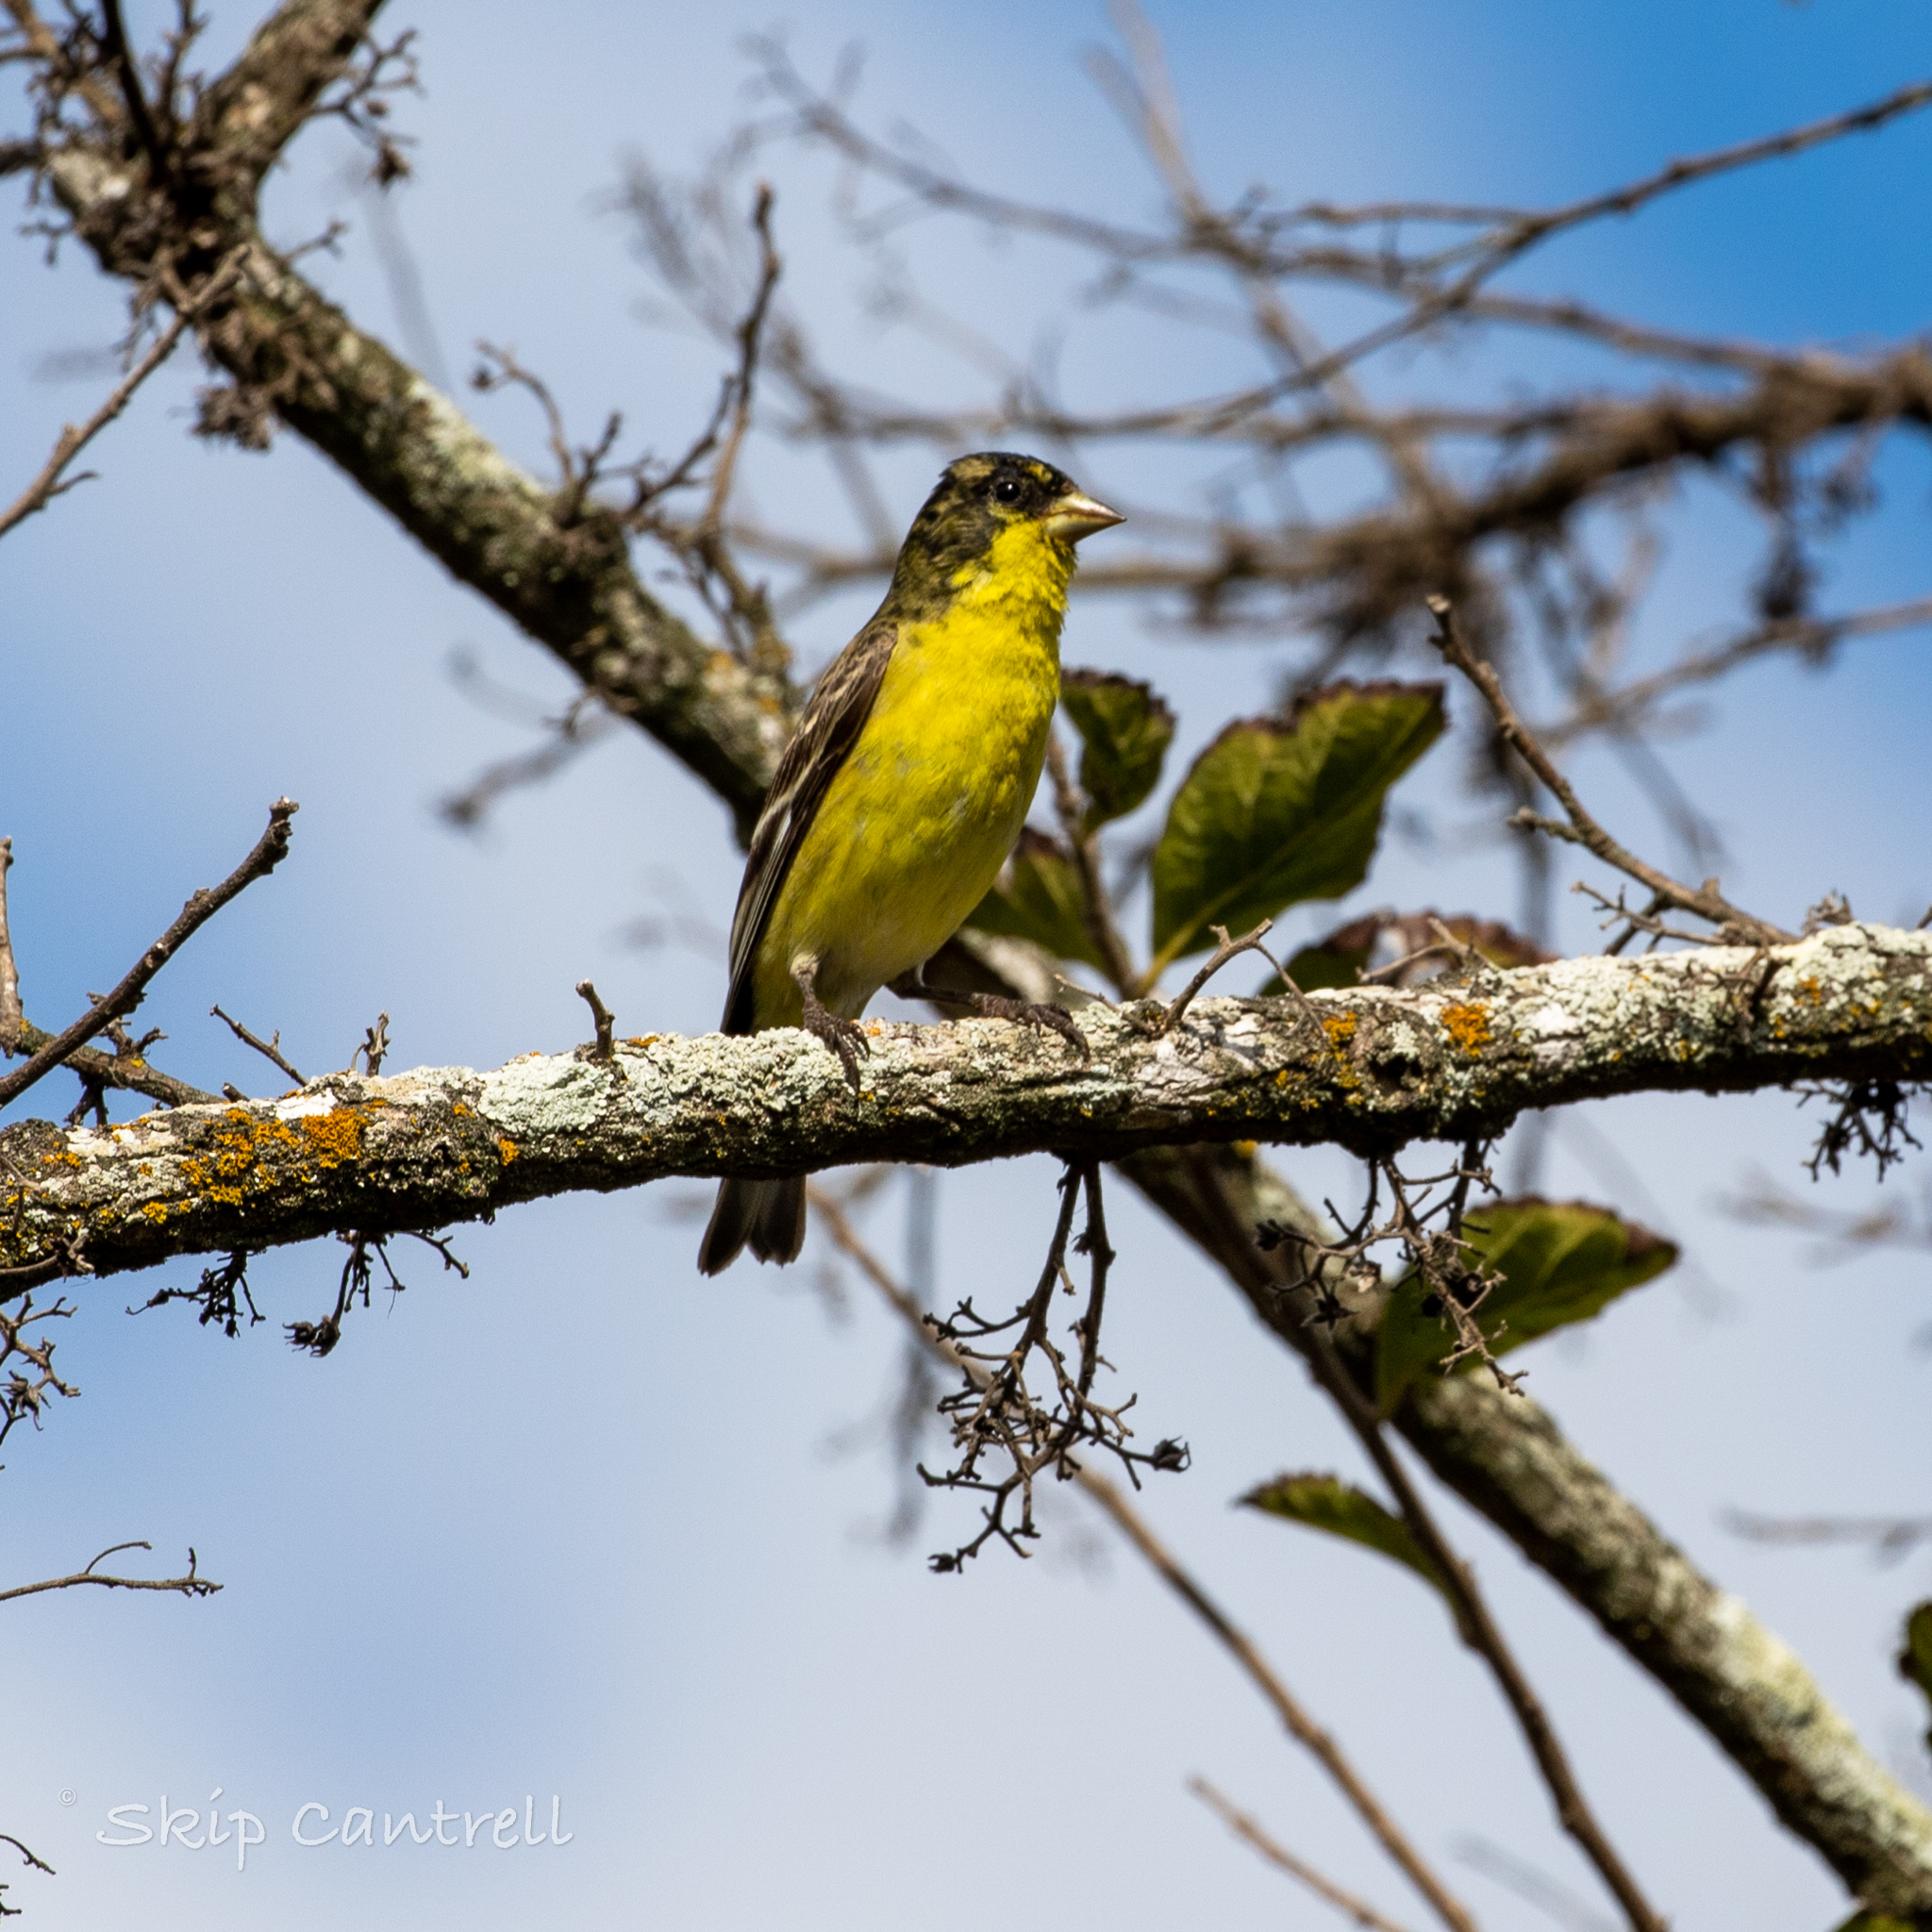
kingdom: Animalia
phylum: Chordata
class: Aves
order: Passeriformes
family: Fringillidae
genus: Spinus
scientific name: Spinus psaltria
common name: Lesser goldfinch
